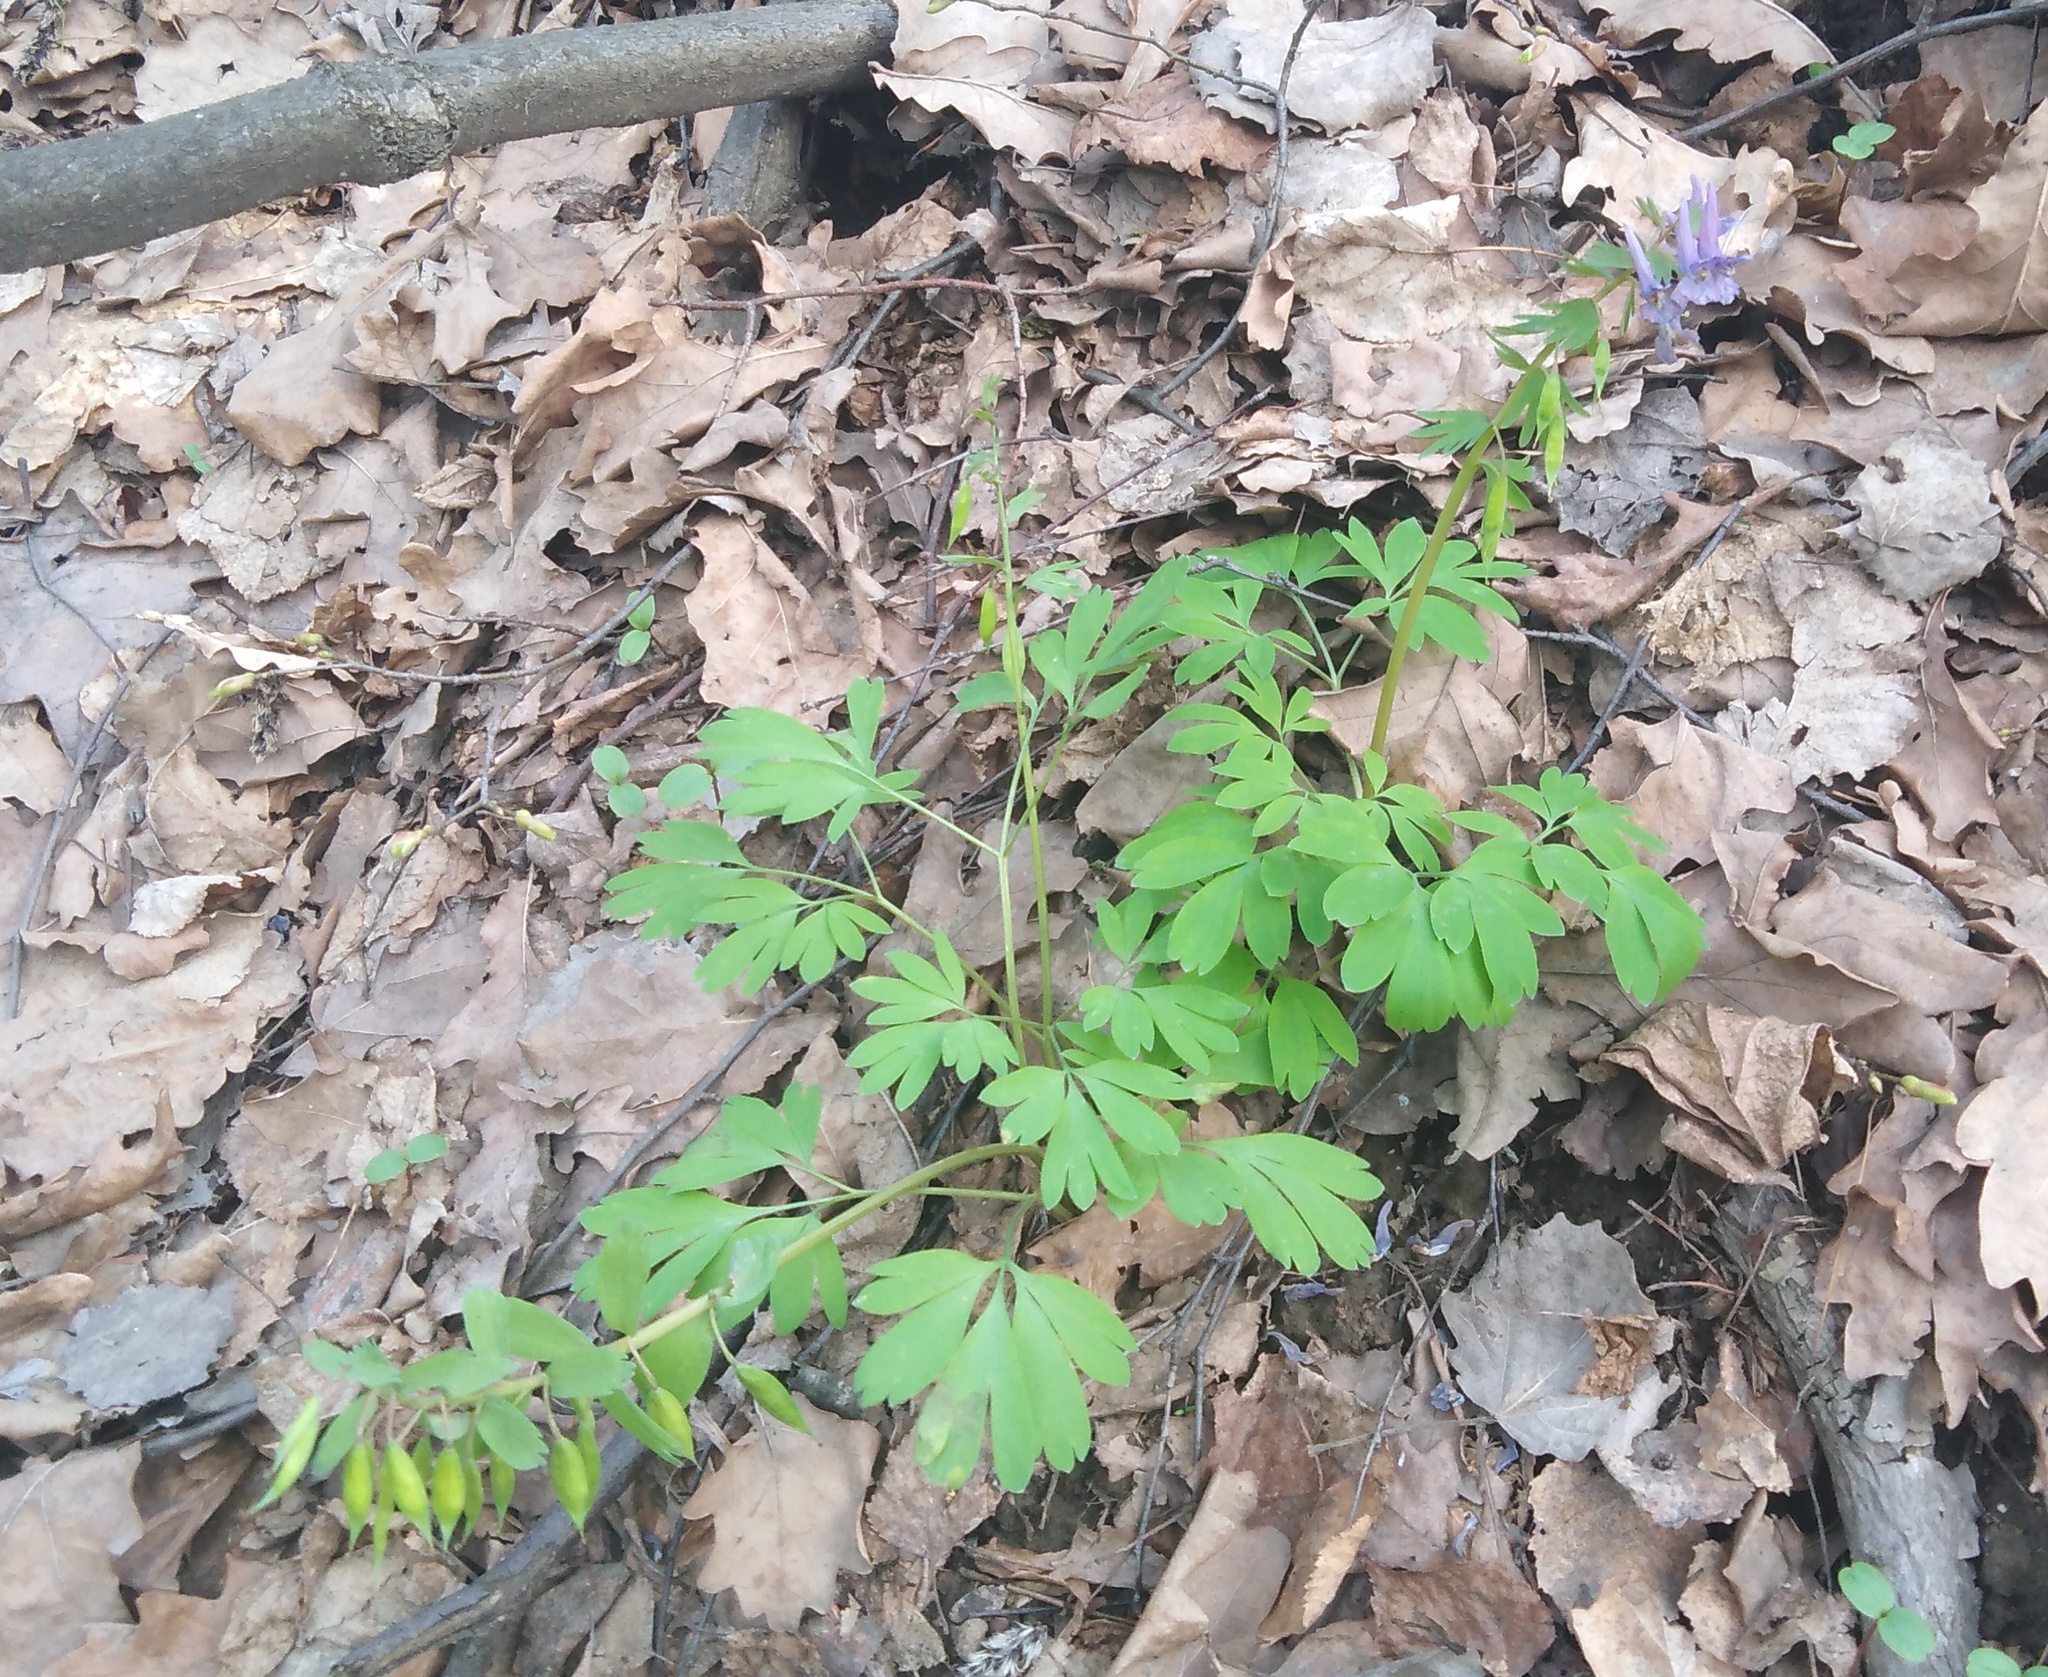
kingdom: Plantae
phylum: Tracheophyta
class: Magnoliopsida
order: Ranunculales
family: Papaveraceae
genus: Corydalis
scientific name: Corydalis solida
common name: Bird-in-a-bush
